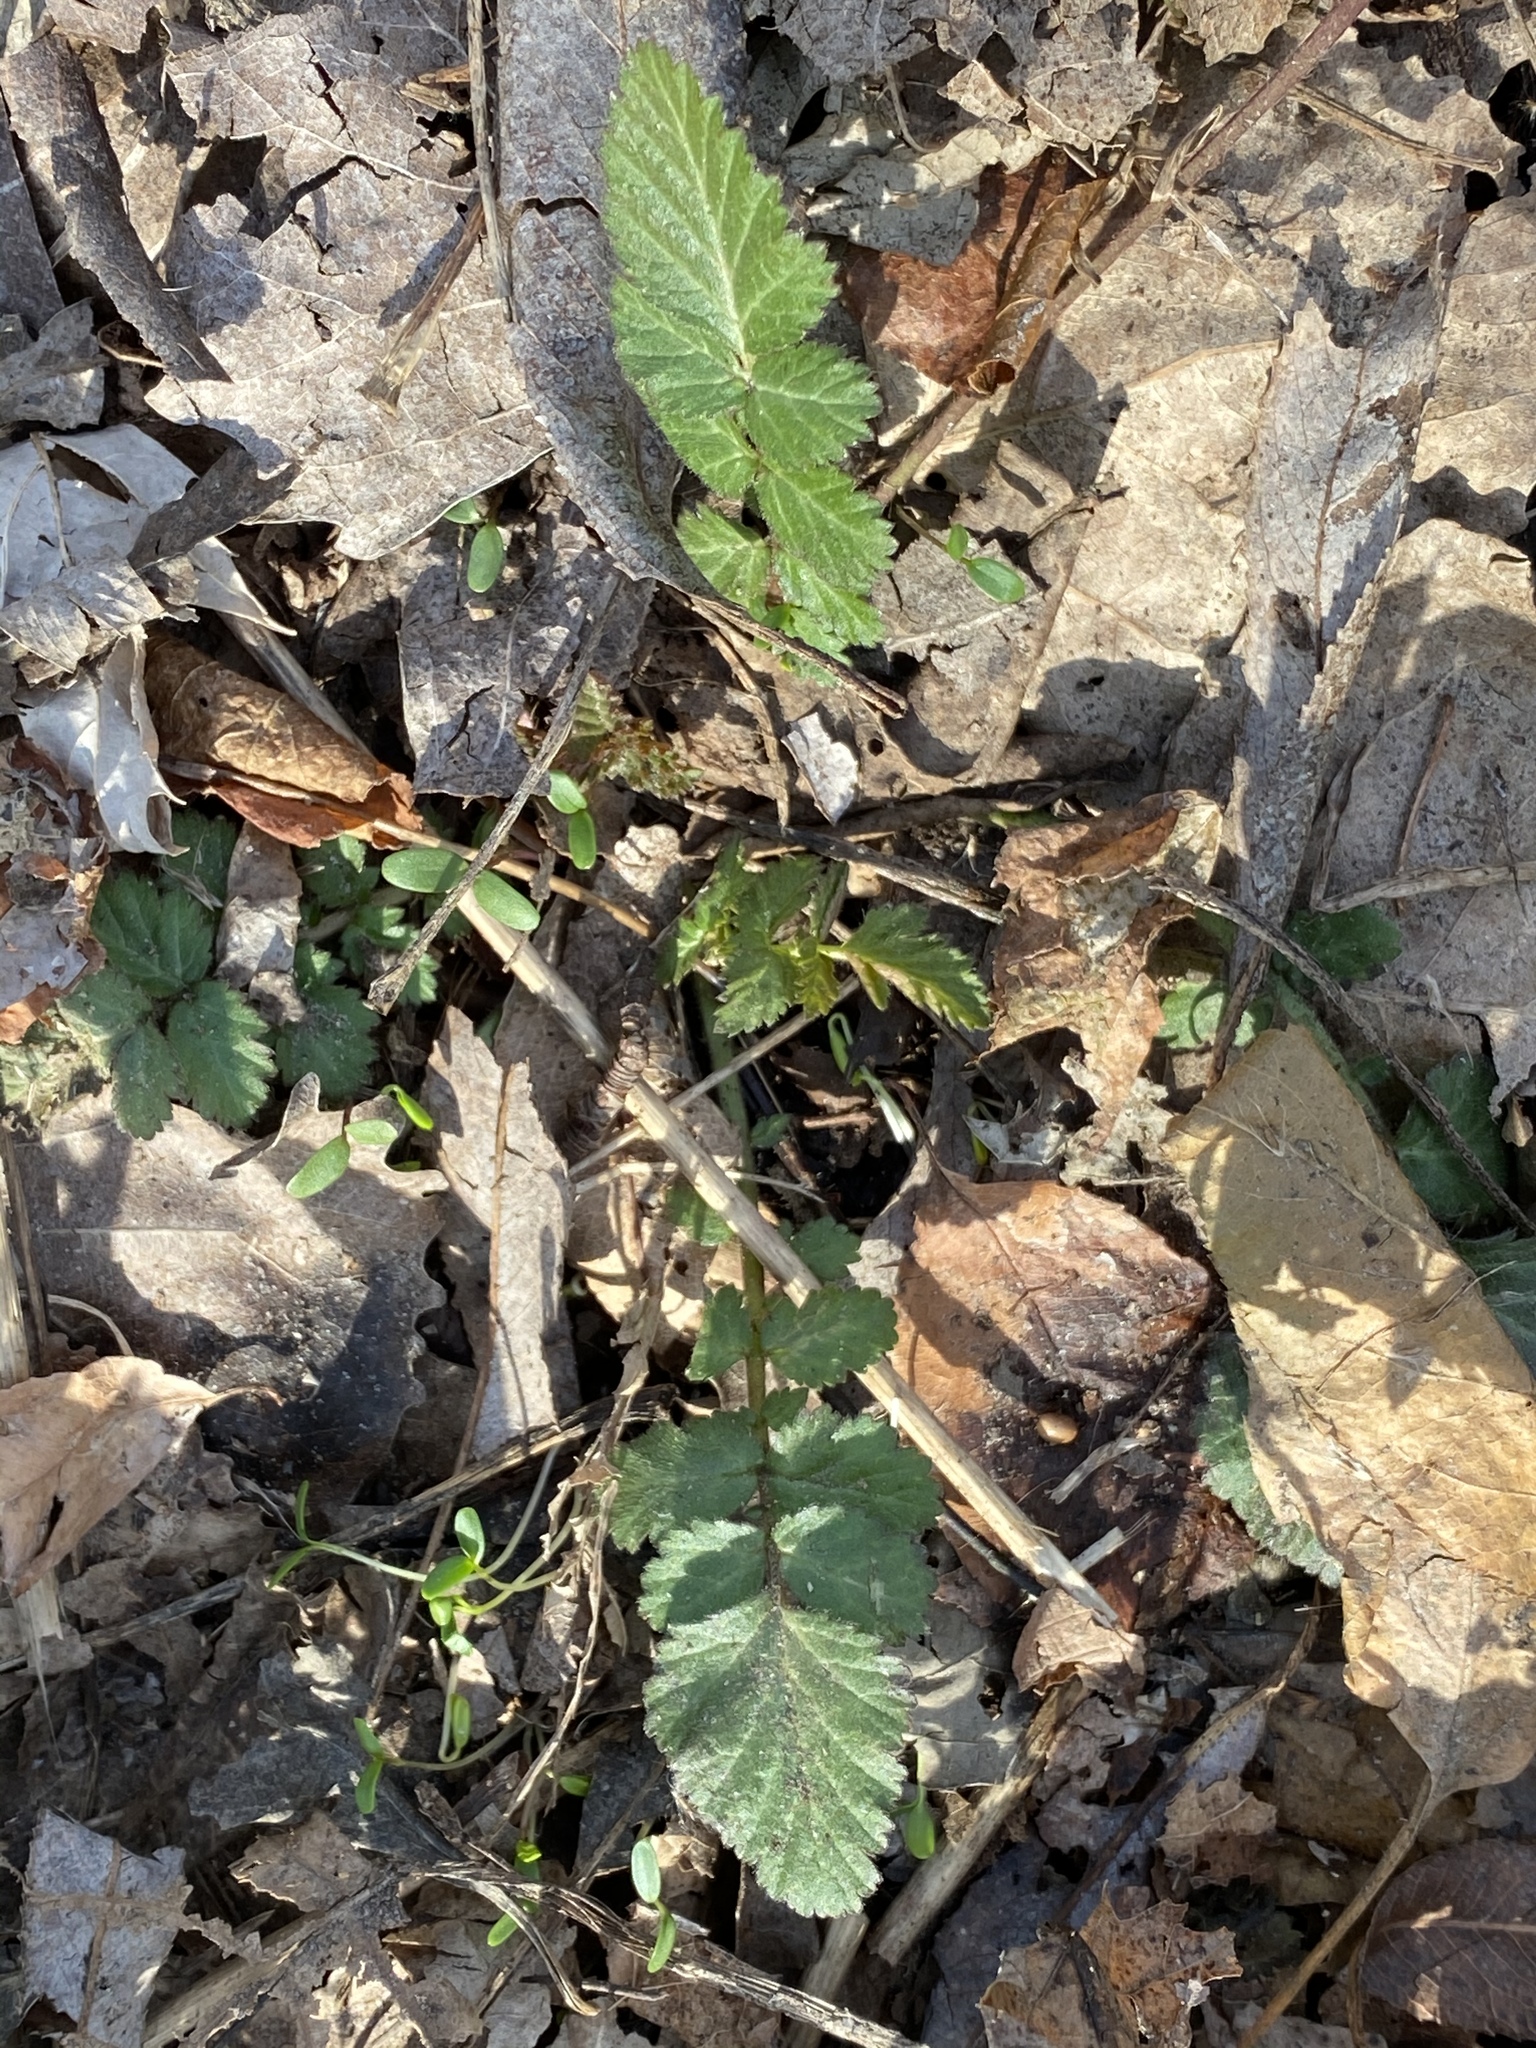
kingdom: Plantae
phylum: Tracheophyta
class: Magnoliopsida
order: Rosales
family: Rosaceae
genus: Geum
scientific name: Geum canadense
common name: White avens
